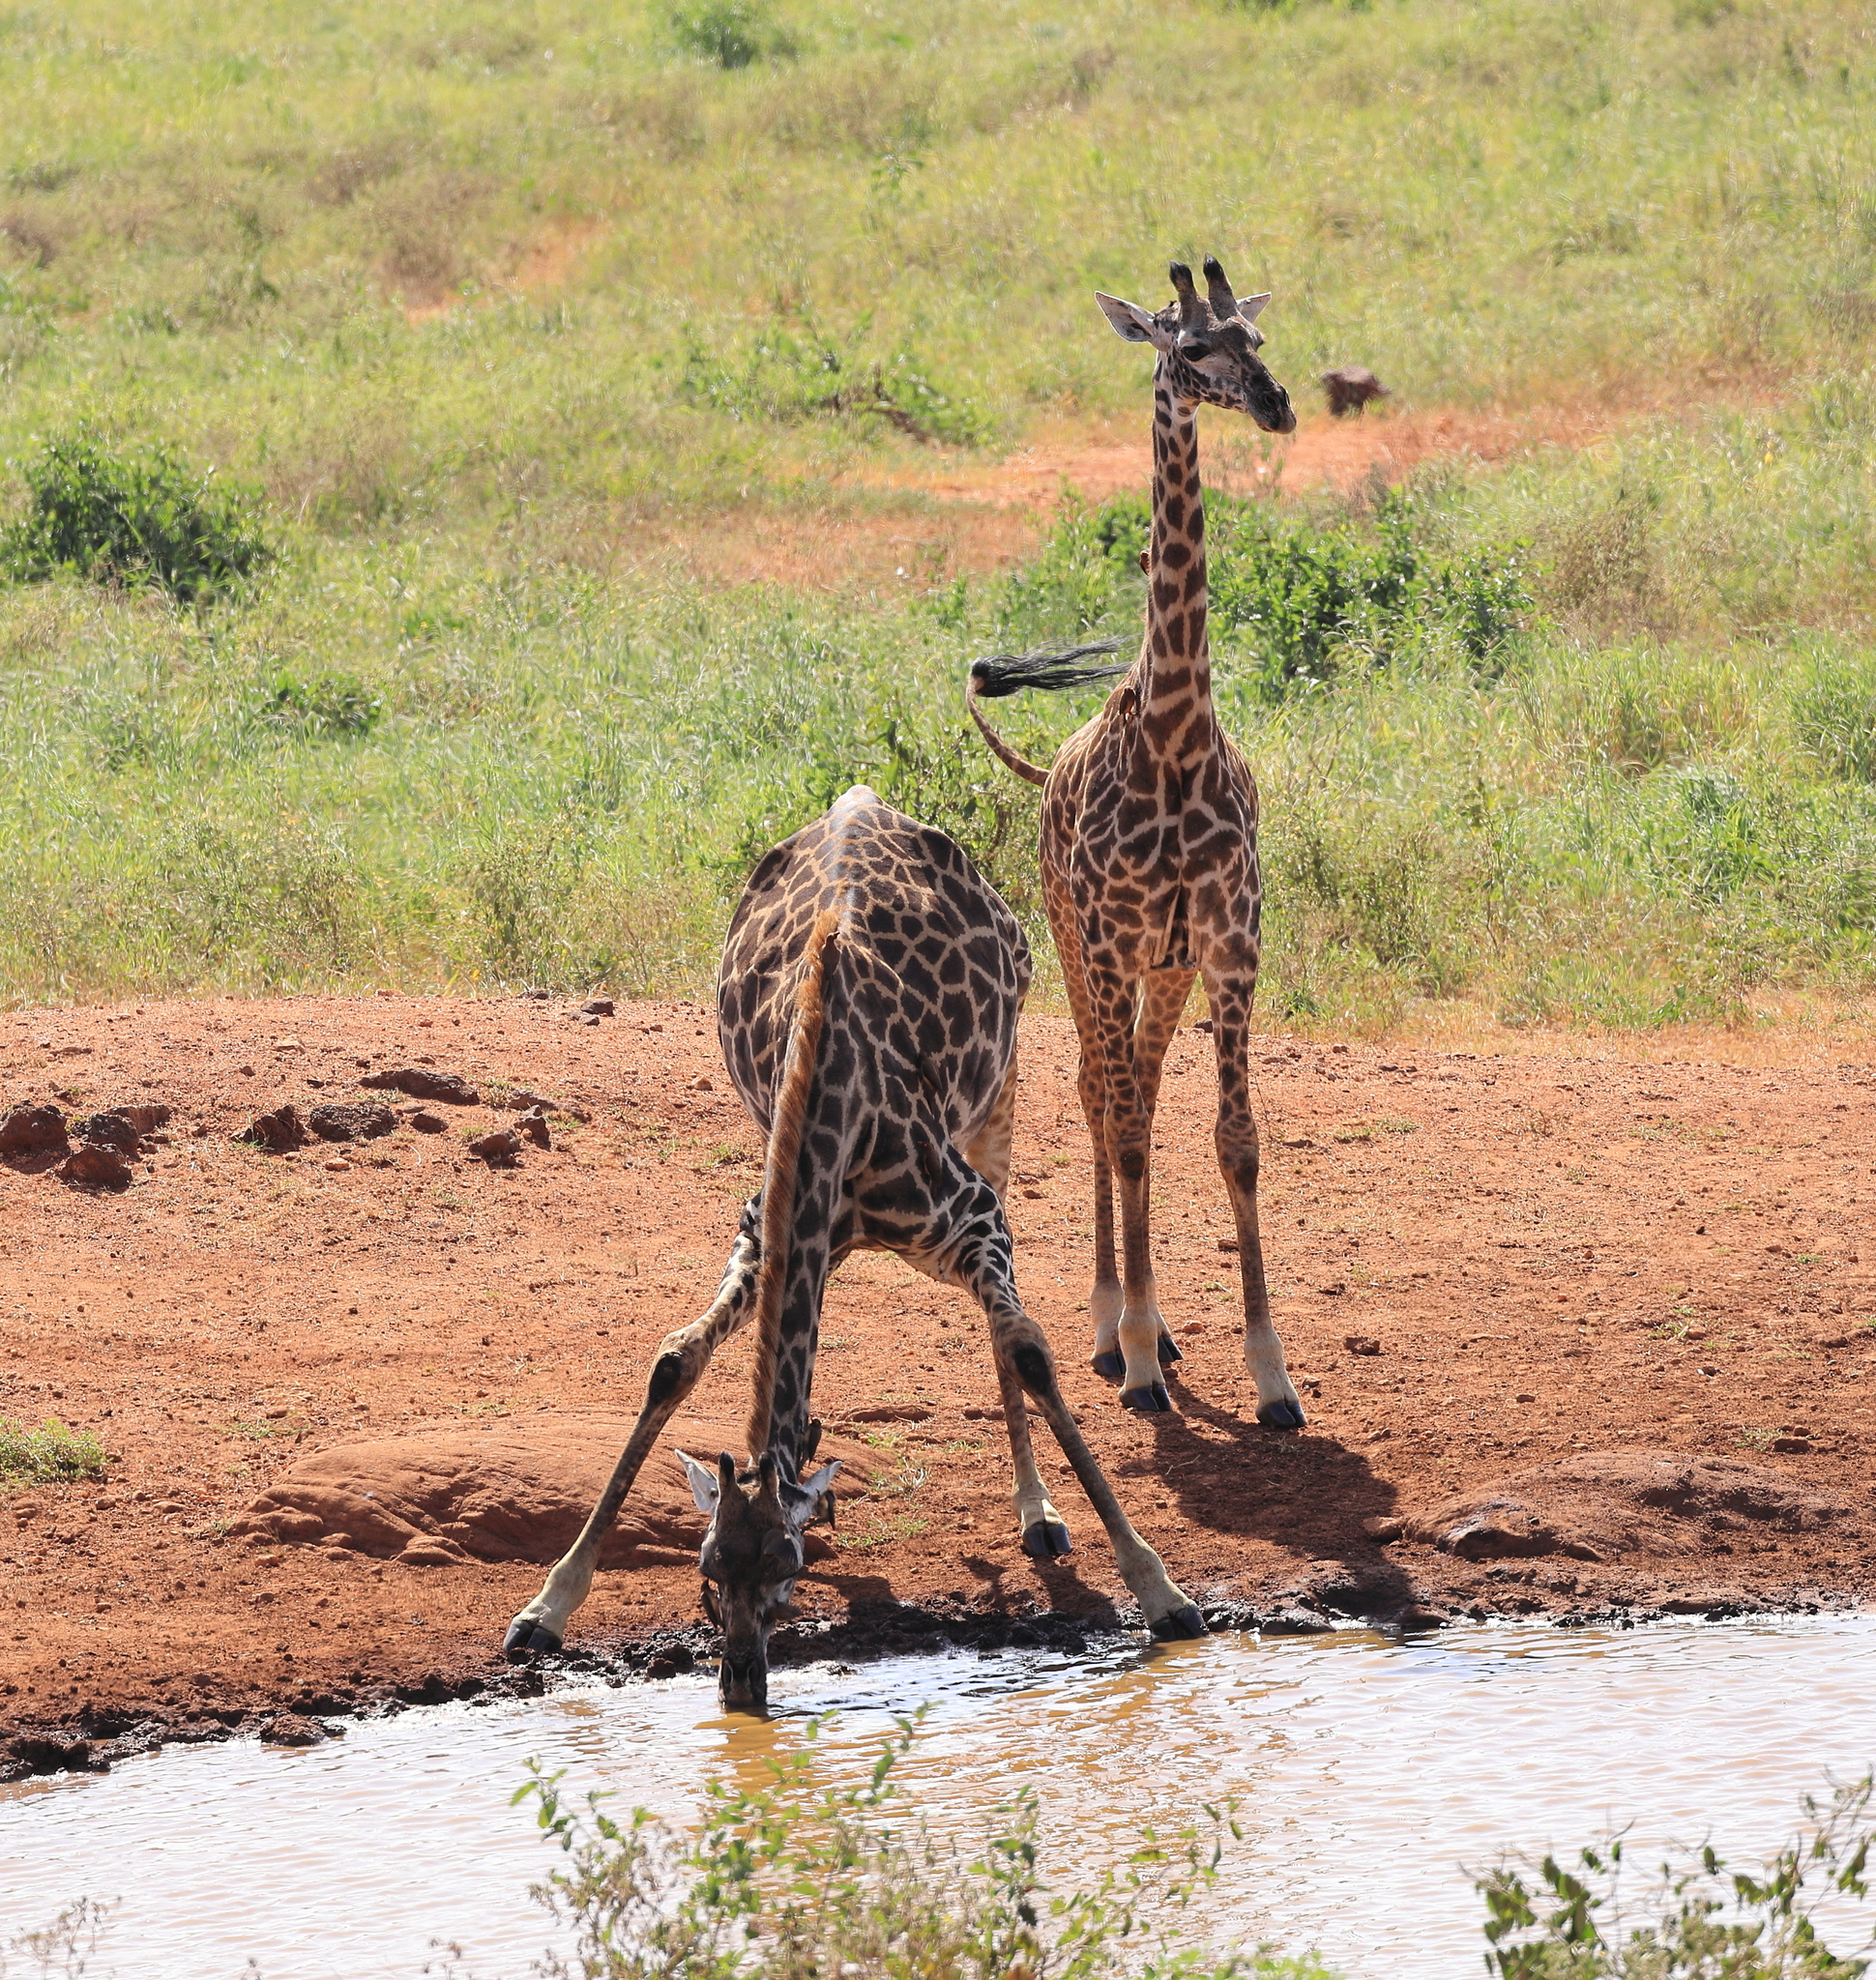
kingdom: Animalia
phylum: Chordata
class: Mammalia
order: Artiodactyla
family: Giraffidae
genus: Giraffa
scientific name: Giraffa tippelskirchi
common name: Masai giraffe
